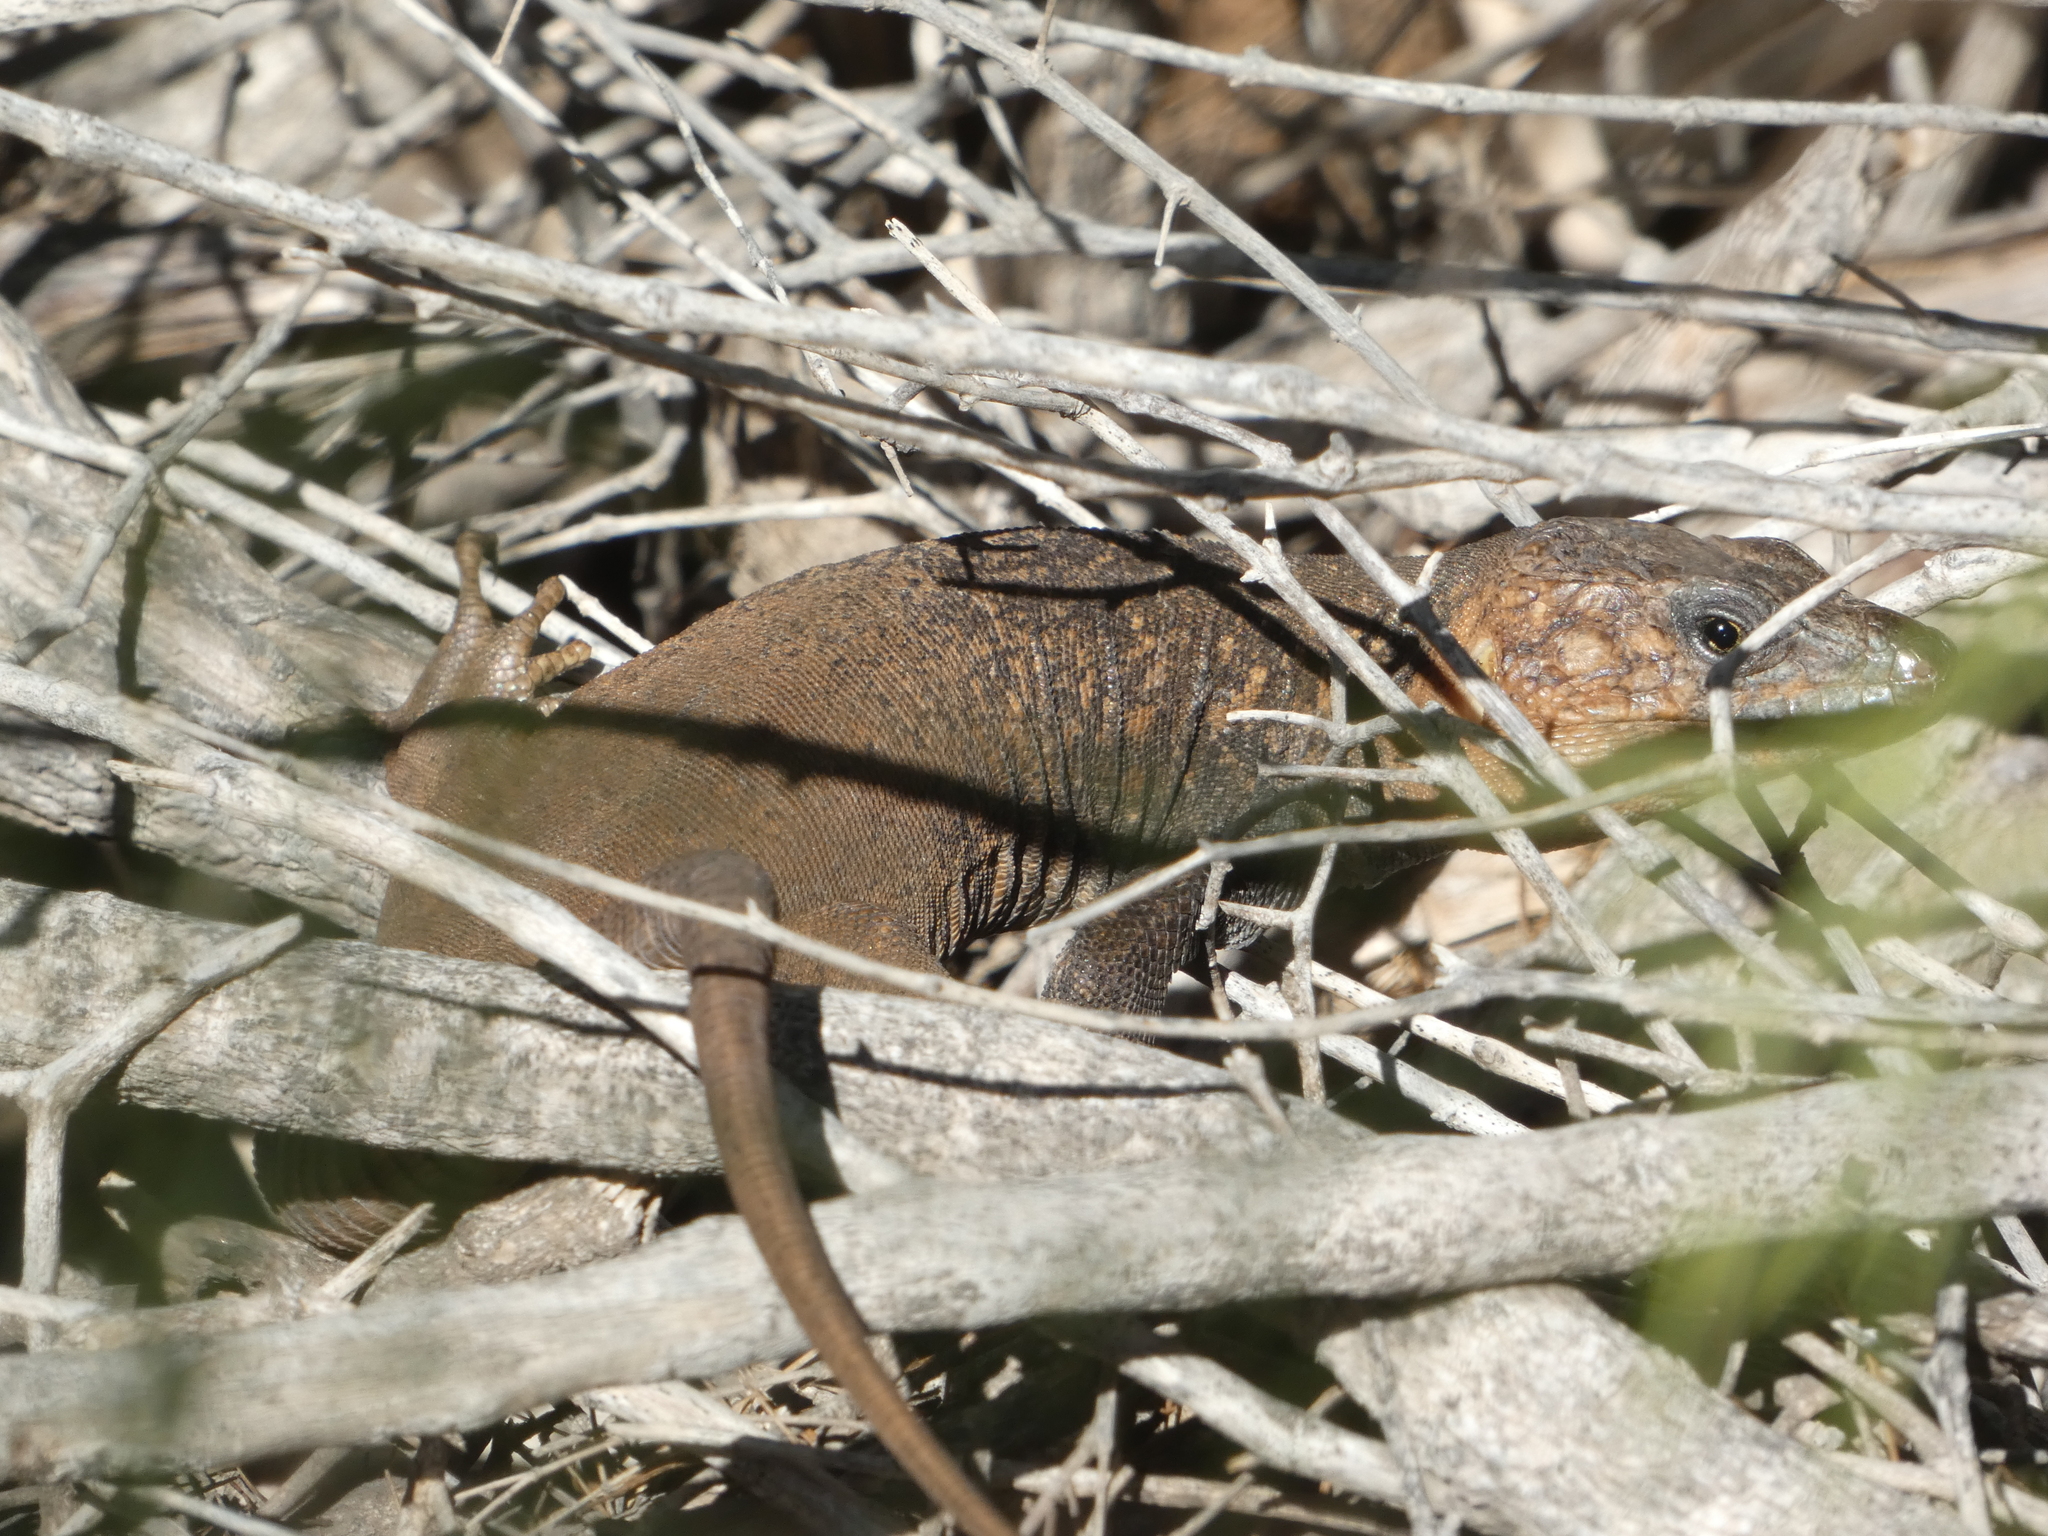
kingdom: Animalia
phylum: Chordata
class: Squamata
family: Lacertidae
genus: Gallotia
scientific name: Gallotia stehlini
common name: Gran canaria giant lizard
